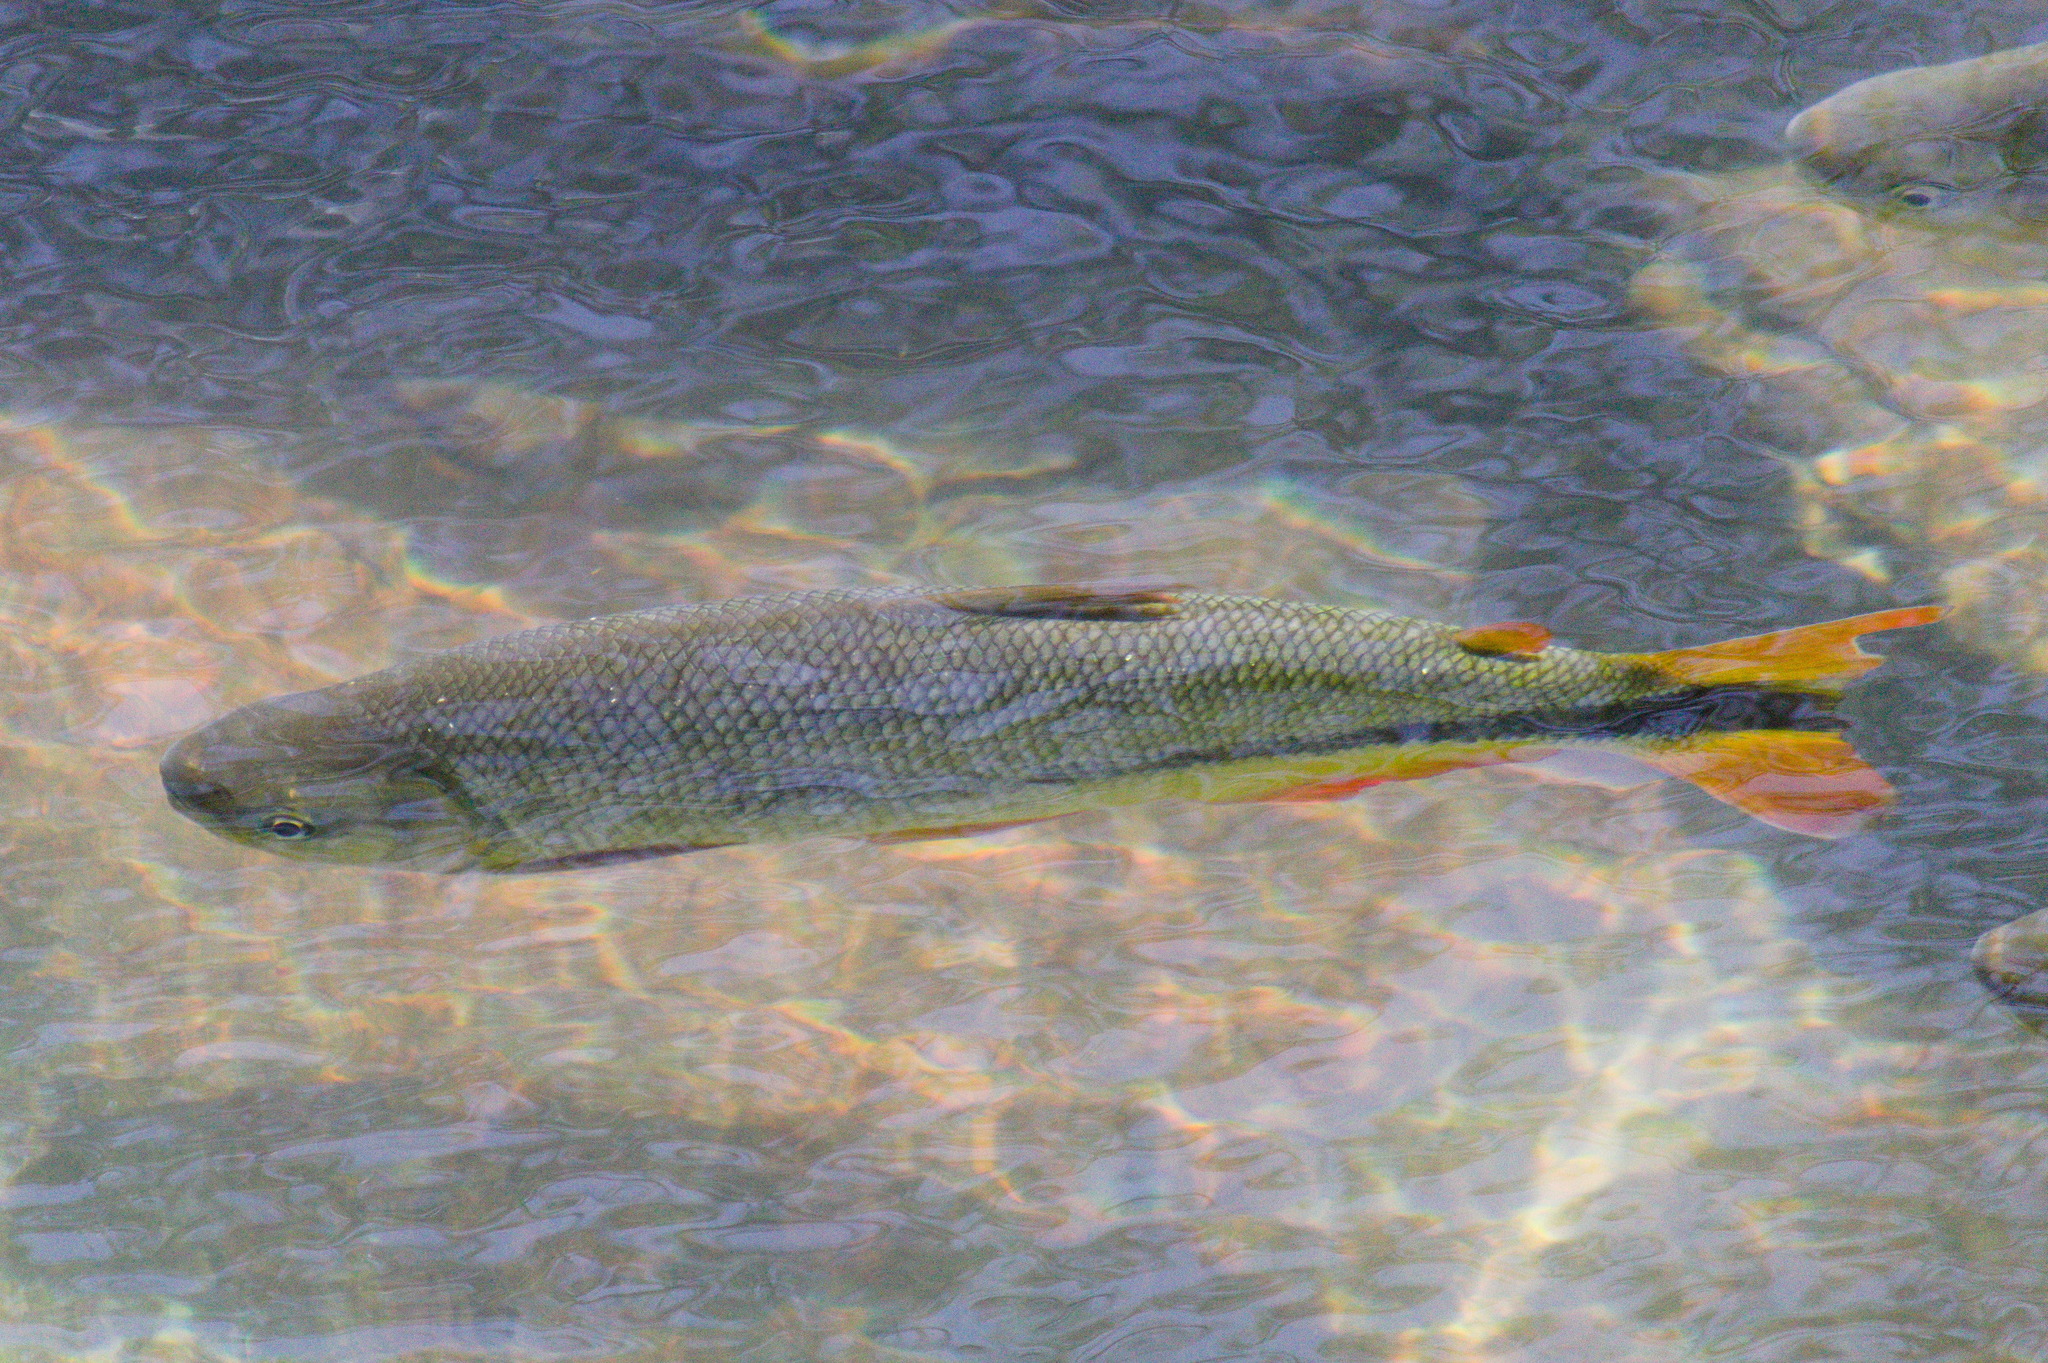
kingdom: Animalia
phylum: Chordata
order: Characiformes
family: Bryconidae
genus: Brycon
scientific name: Brycon hilarii
